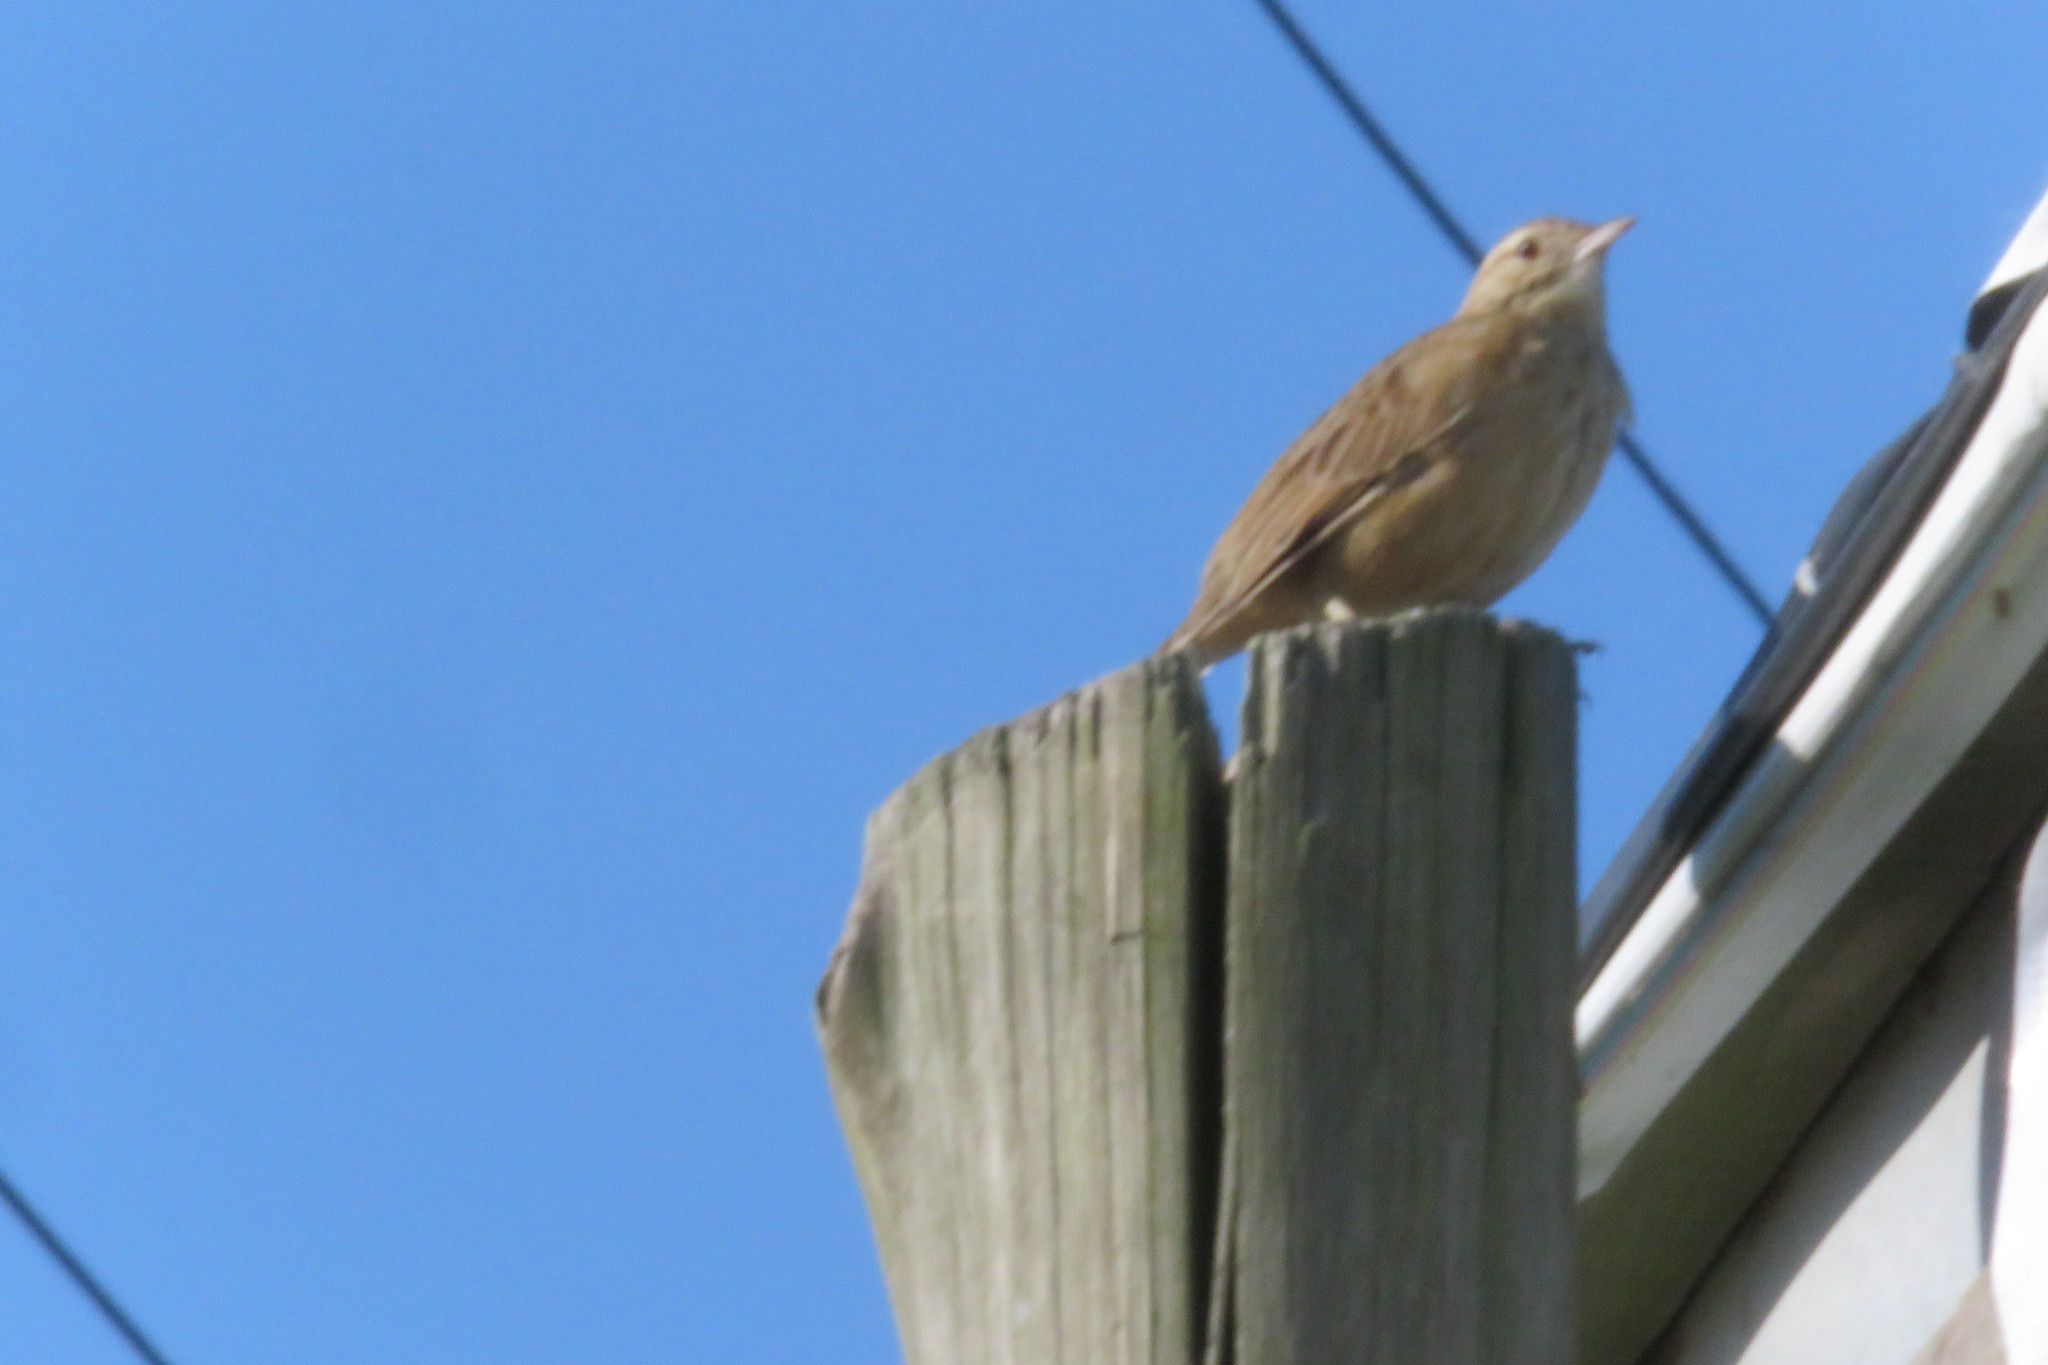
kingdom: Animalia
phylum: Chordata
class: Aves
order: Passeriformes
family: Furnariidae
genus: Anumbius
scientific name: Anumbius annumbi
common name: Firewood-gatherer
